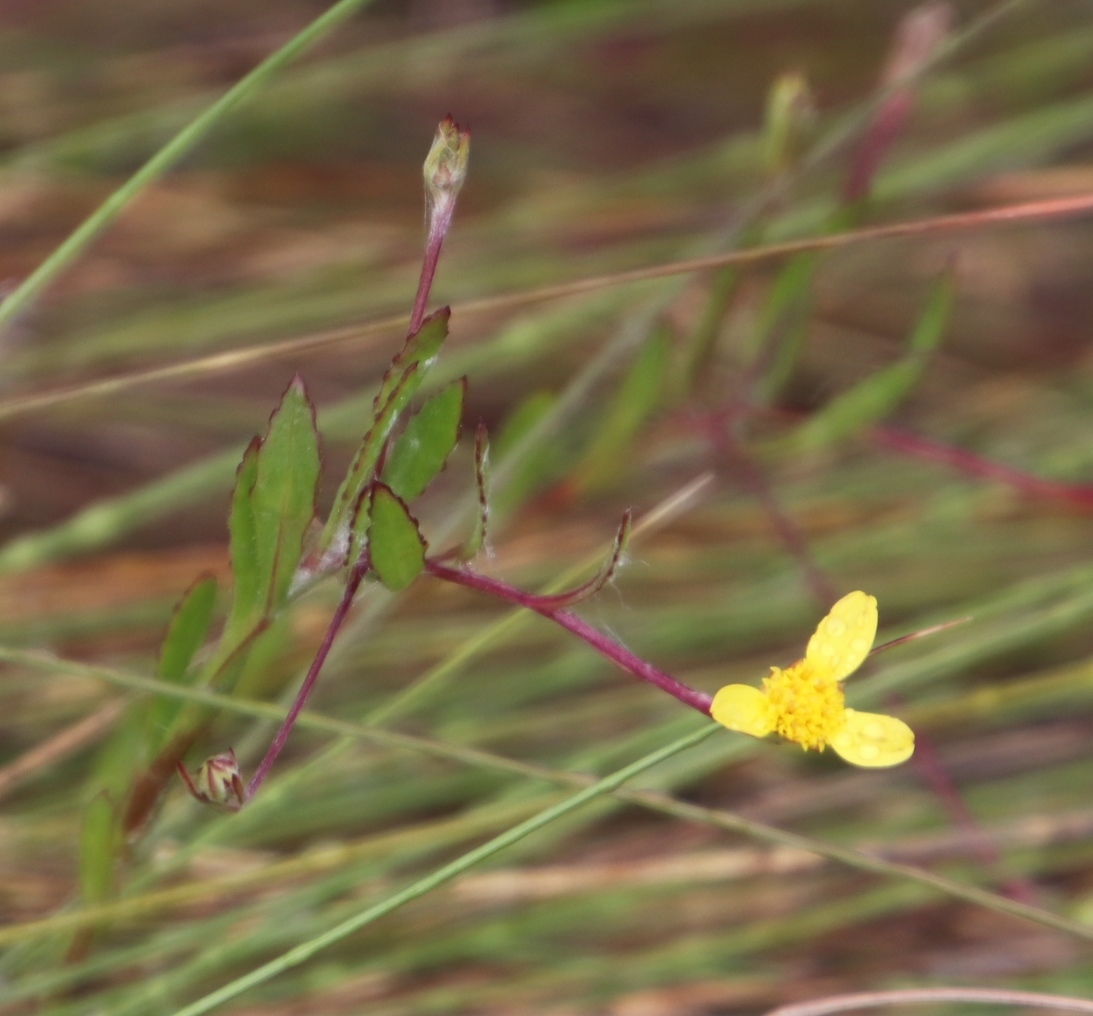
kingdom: Plantae
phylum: Tracheophyta
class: Magnoliopsida
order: Asterales
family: Asteraceae
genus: Osteospermum
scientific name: Osteospermum ciliatum
